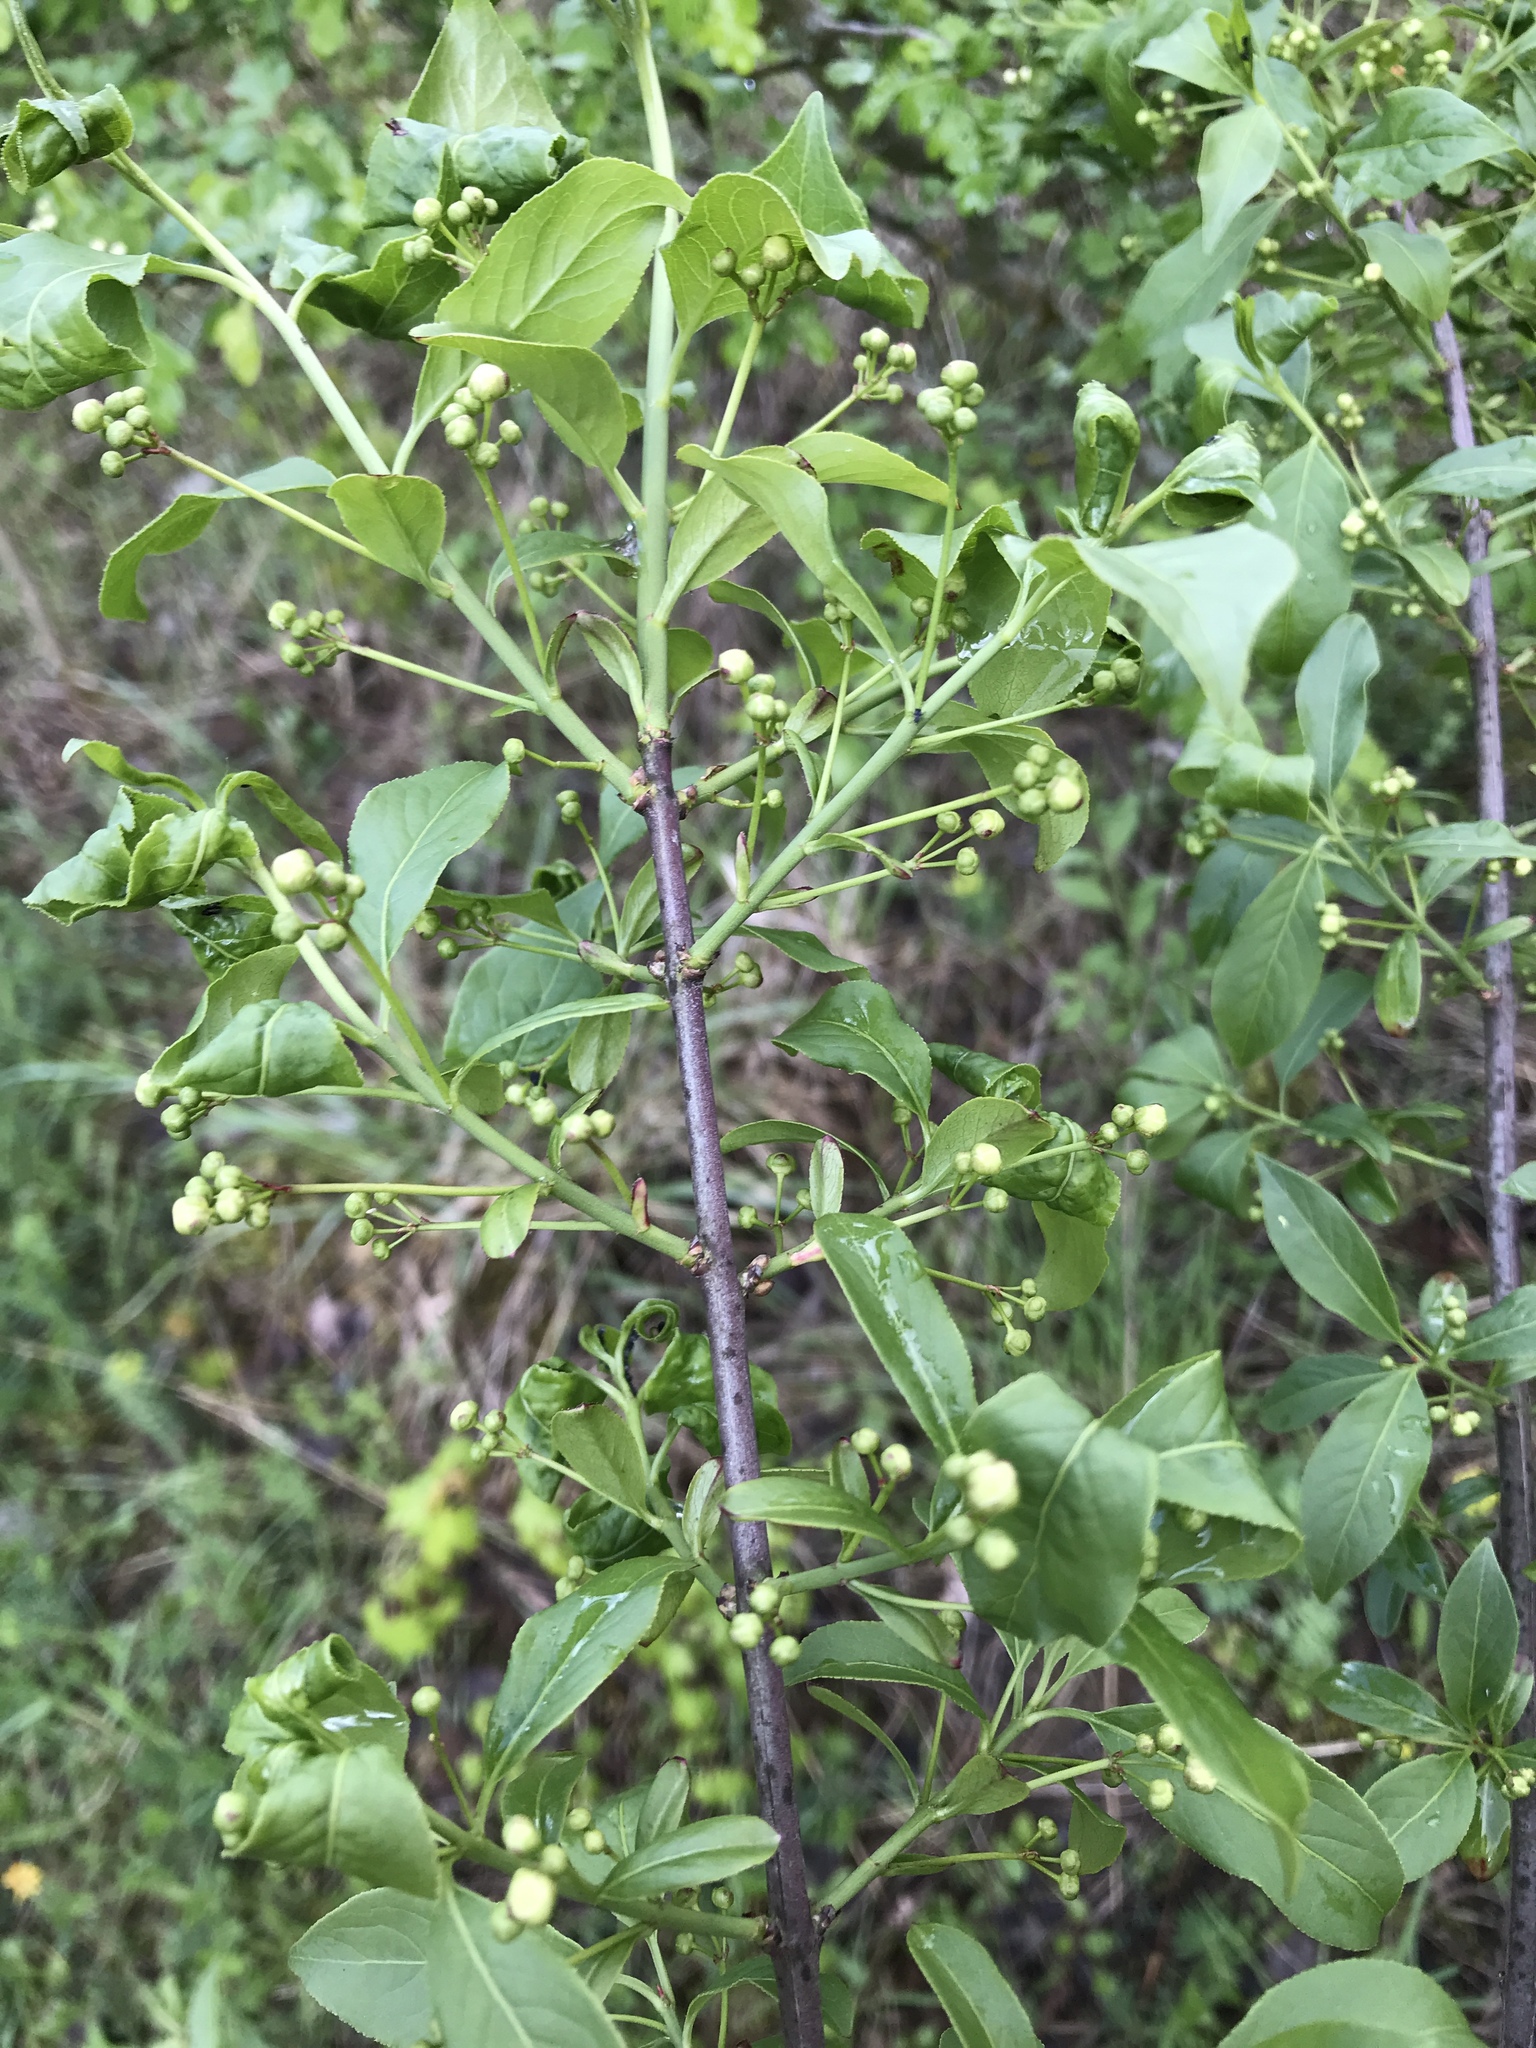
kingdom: Plantae
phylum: Tracheophyta
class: Magnoliopsida
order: Celastrales
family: Celastraceae
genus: Euonymus
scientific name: Euonymus europaeus
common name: Spindle
